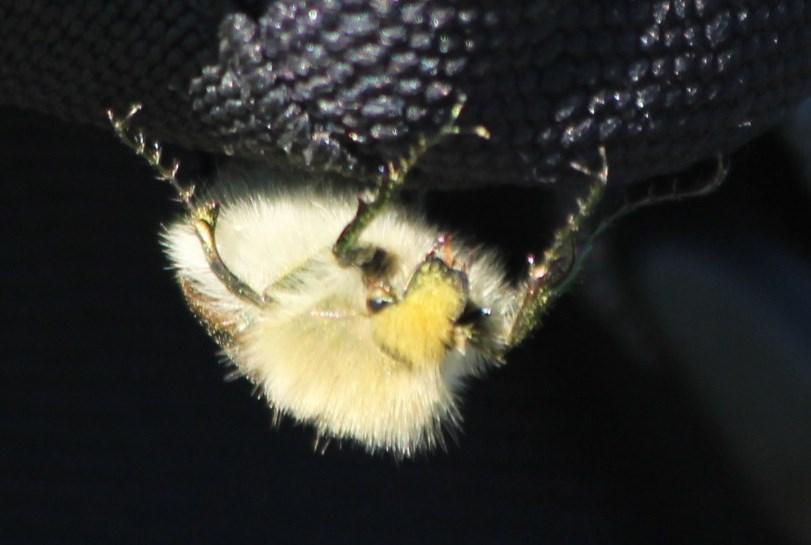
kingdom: Animalia
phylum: Arthropoda
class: Insecta
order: Coleoptera
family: Scarabaeidae
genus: Stegopterus
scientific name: Stegopterus vittatus
